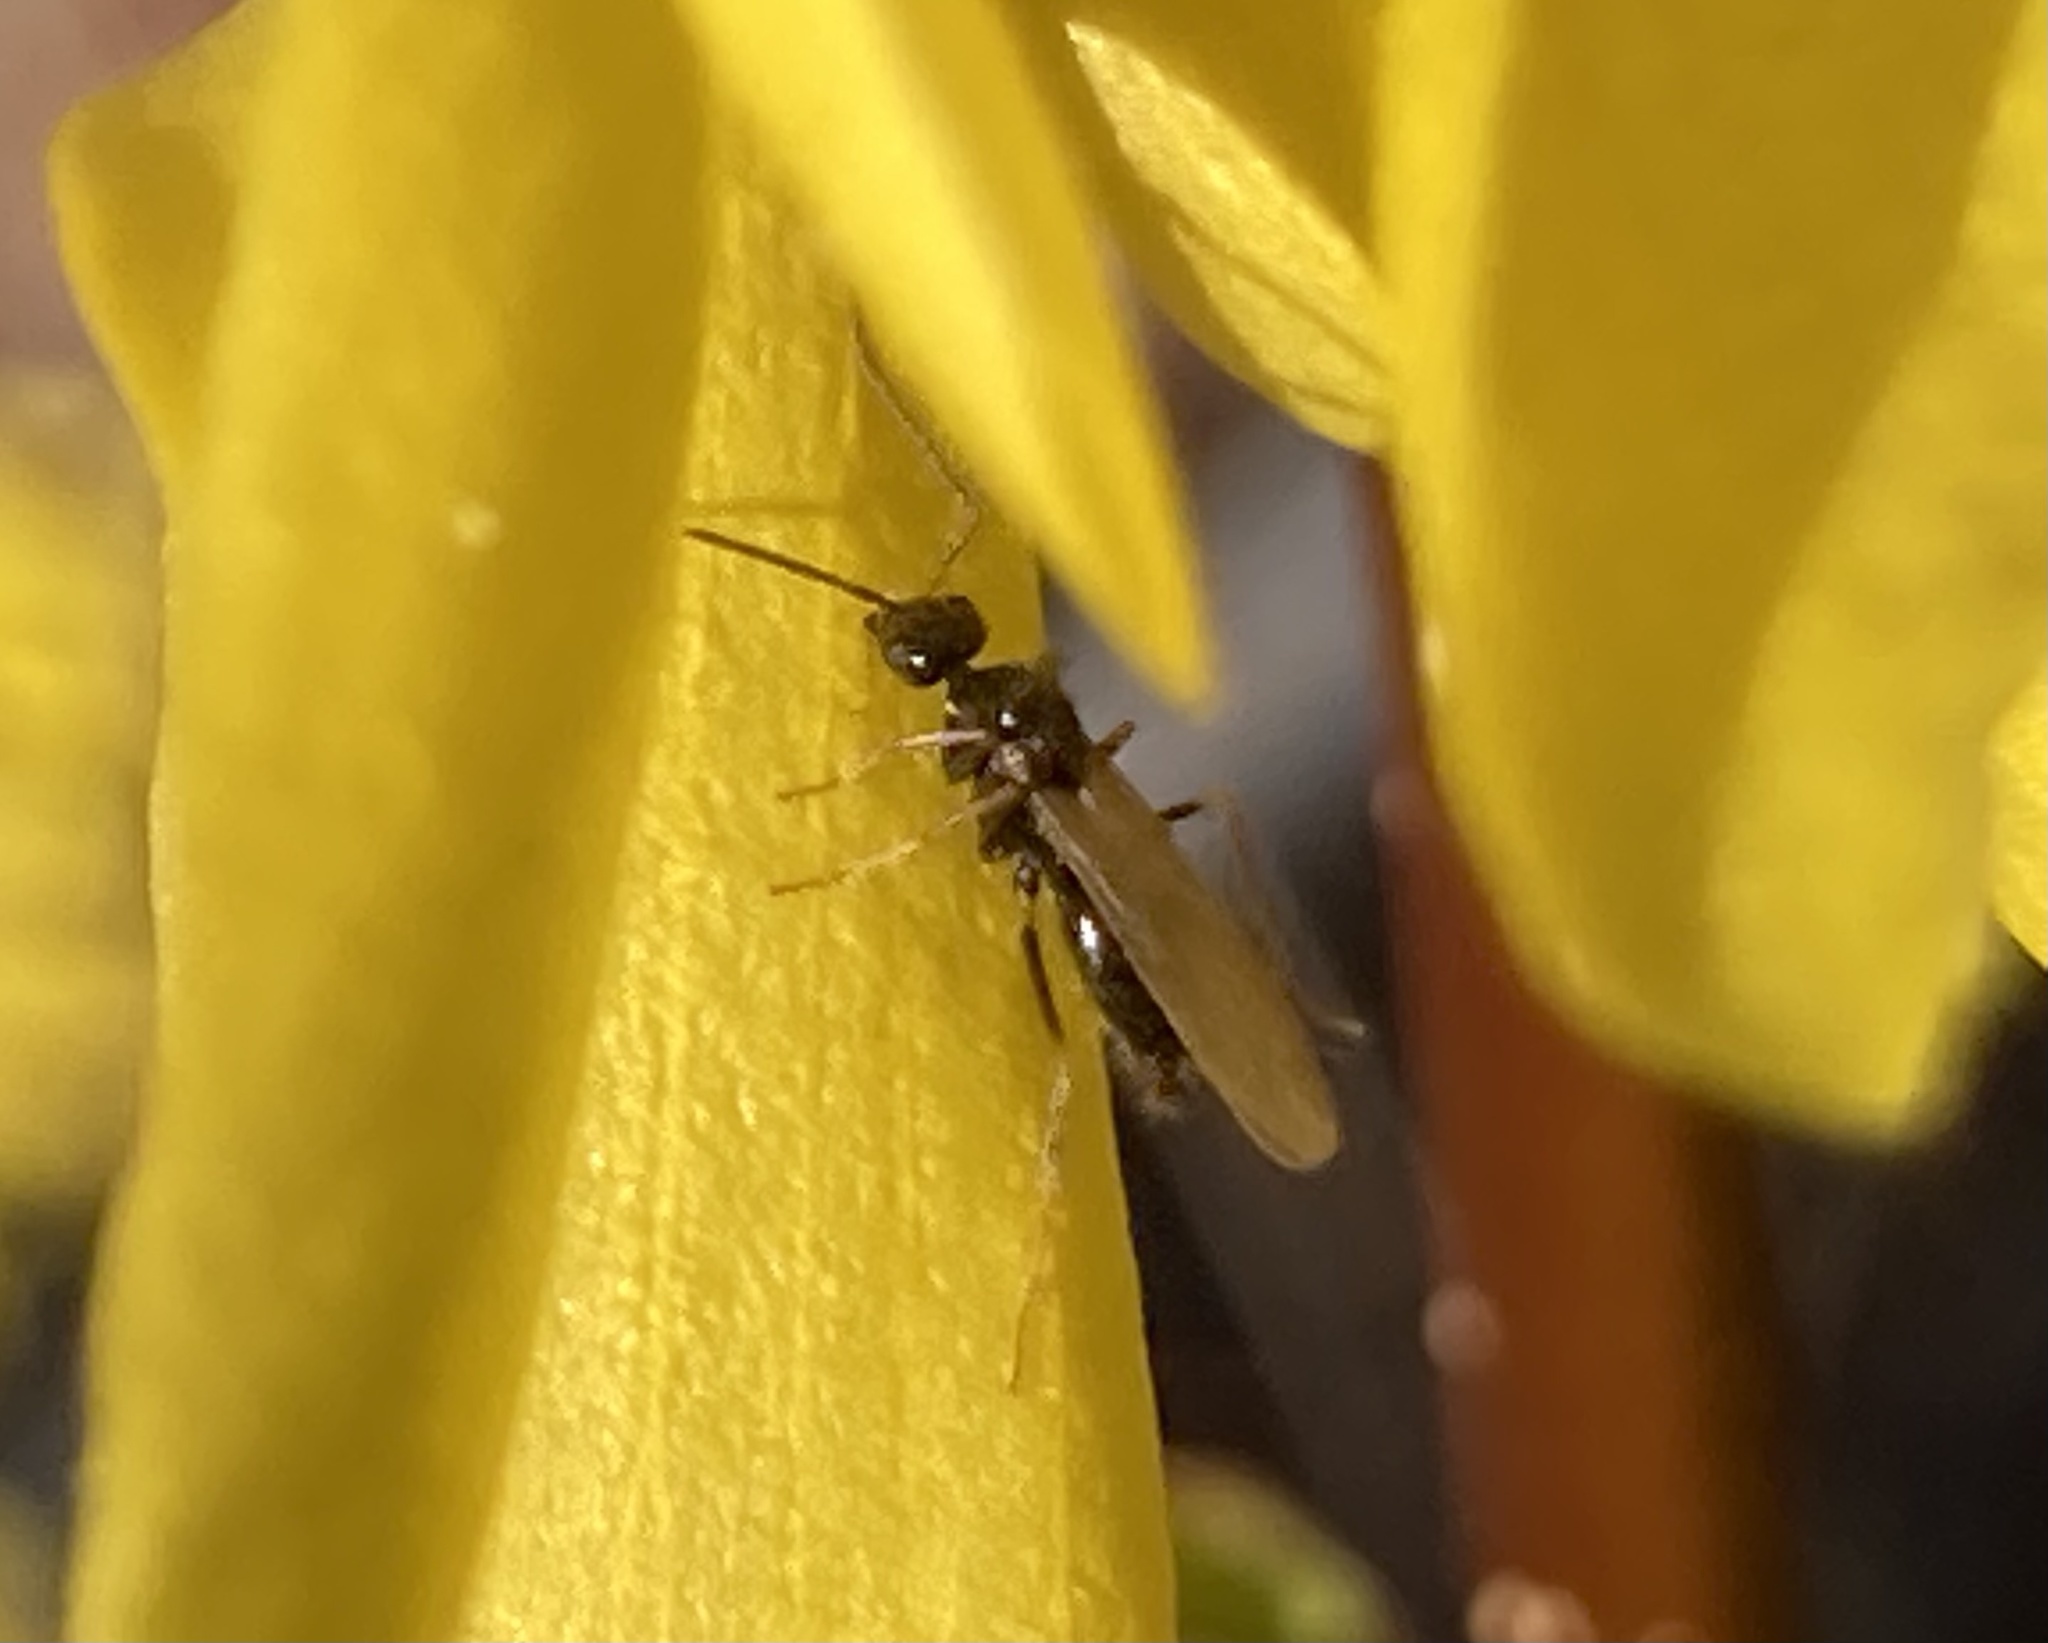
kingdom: Animalia
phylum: Arthropoda
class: Insecta
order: Hymenoptera
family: Formicidae
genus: Prenolepis
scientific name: Prenolepis imparis
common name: Small honey ant
